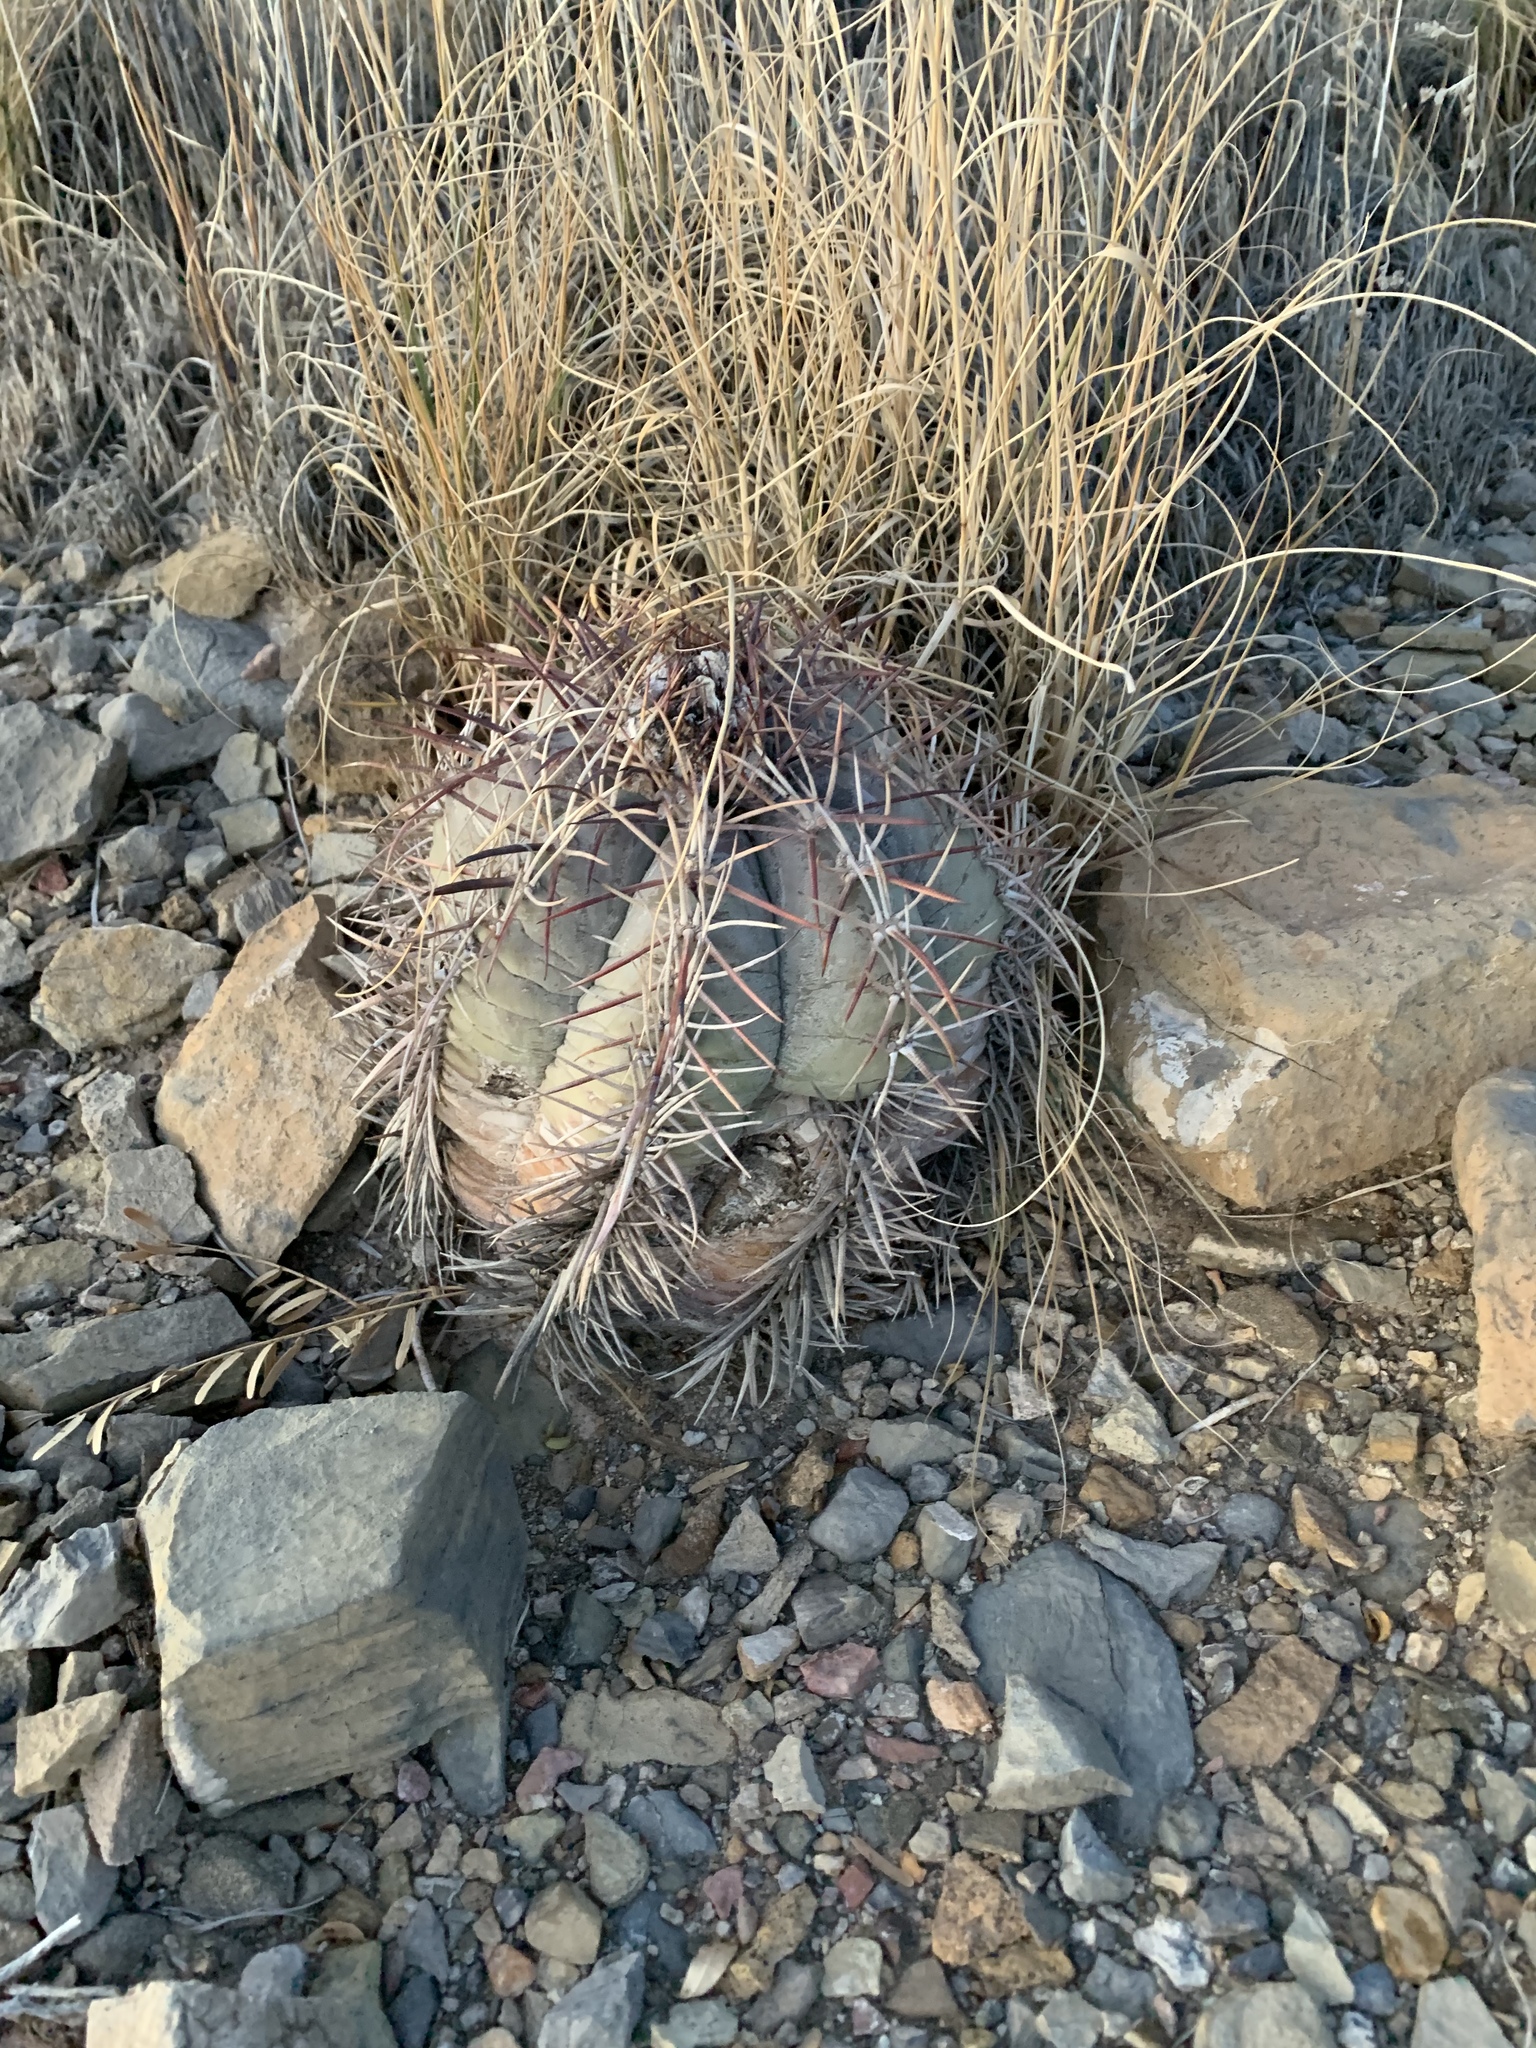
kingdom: Plantae
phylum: Tracheophyta
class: Magnoliopsida
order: Caryophyllales
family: Cactaceae
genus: Echinocactus
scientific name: Echinocactus horizonthalonius
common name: Devilshead
